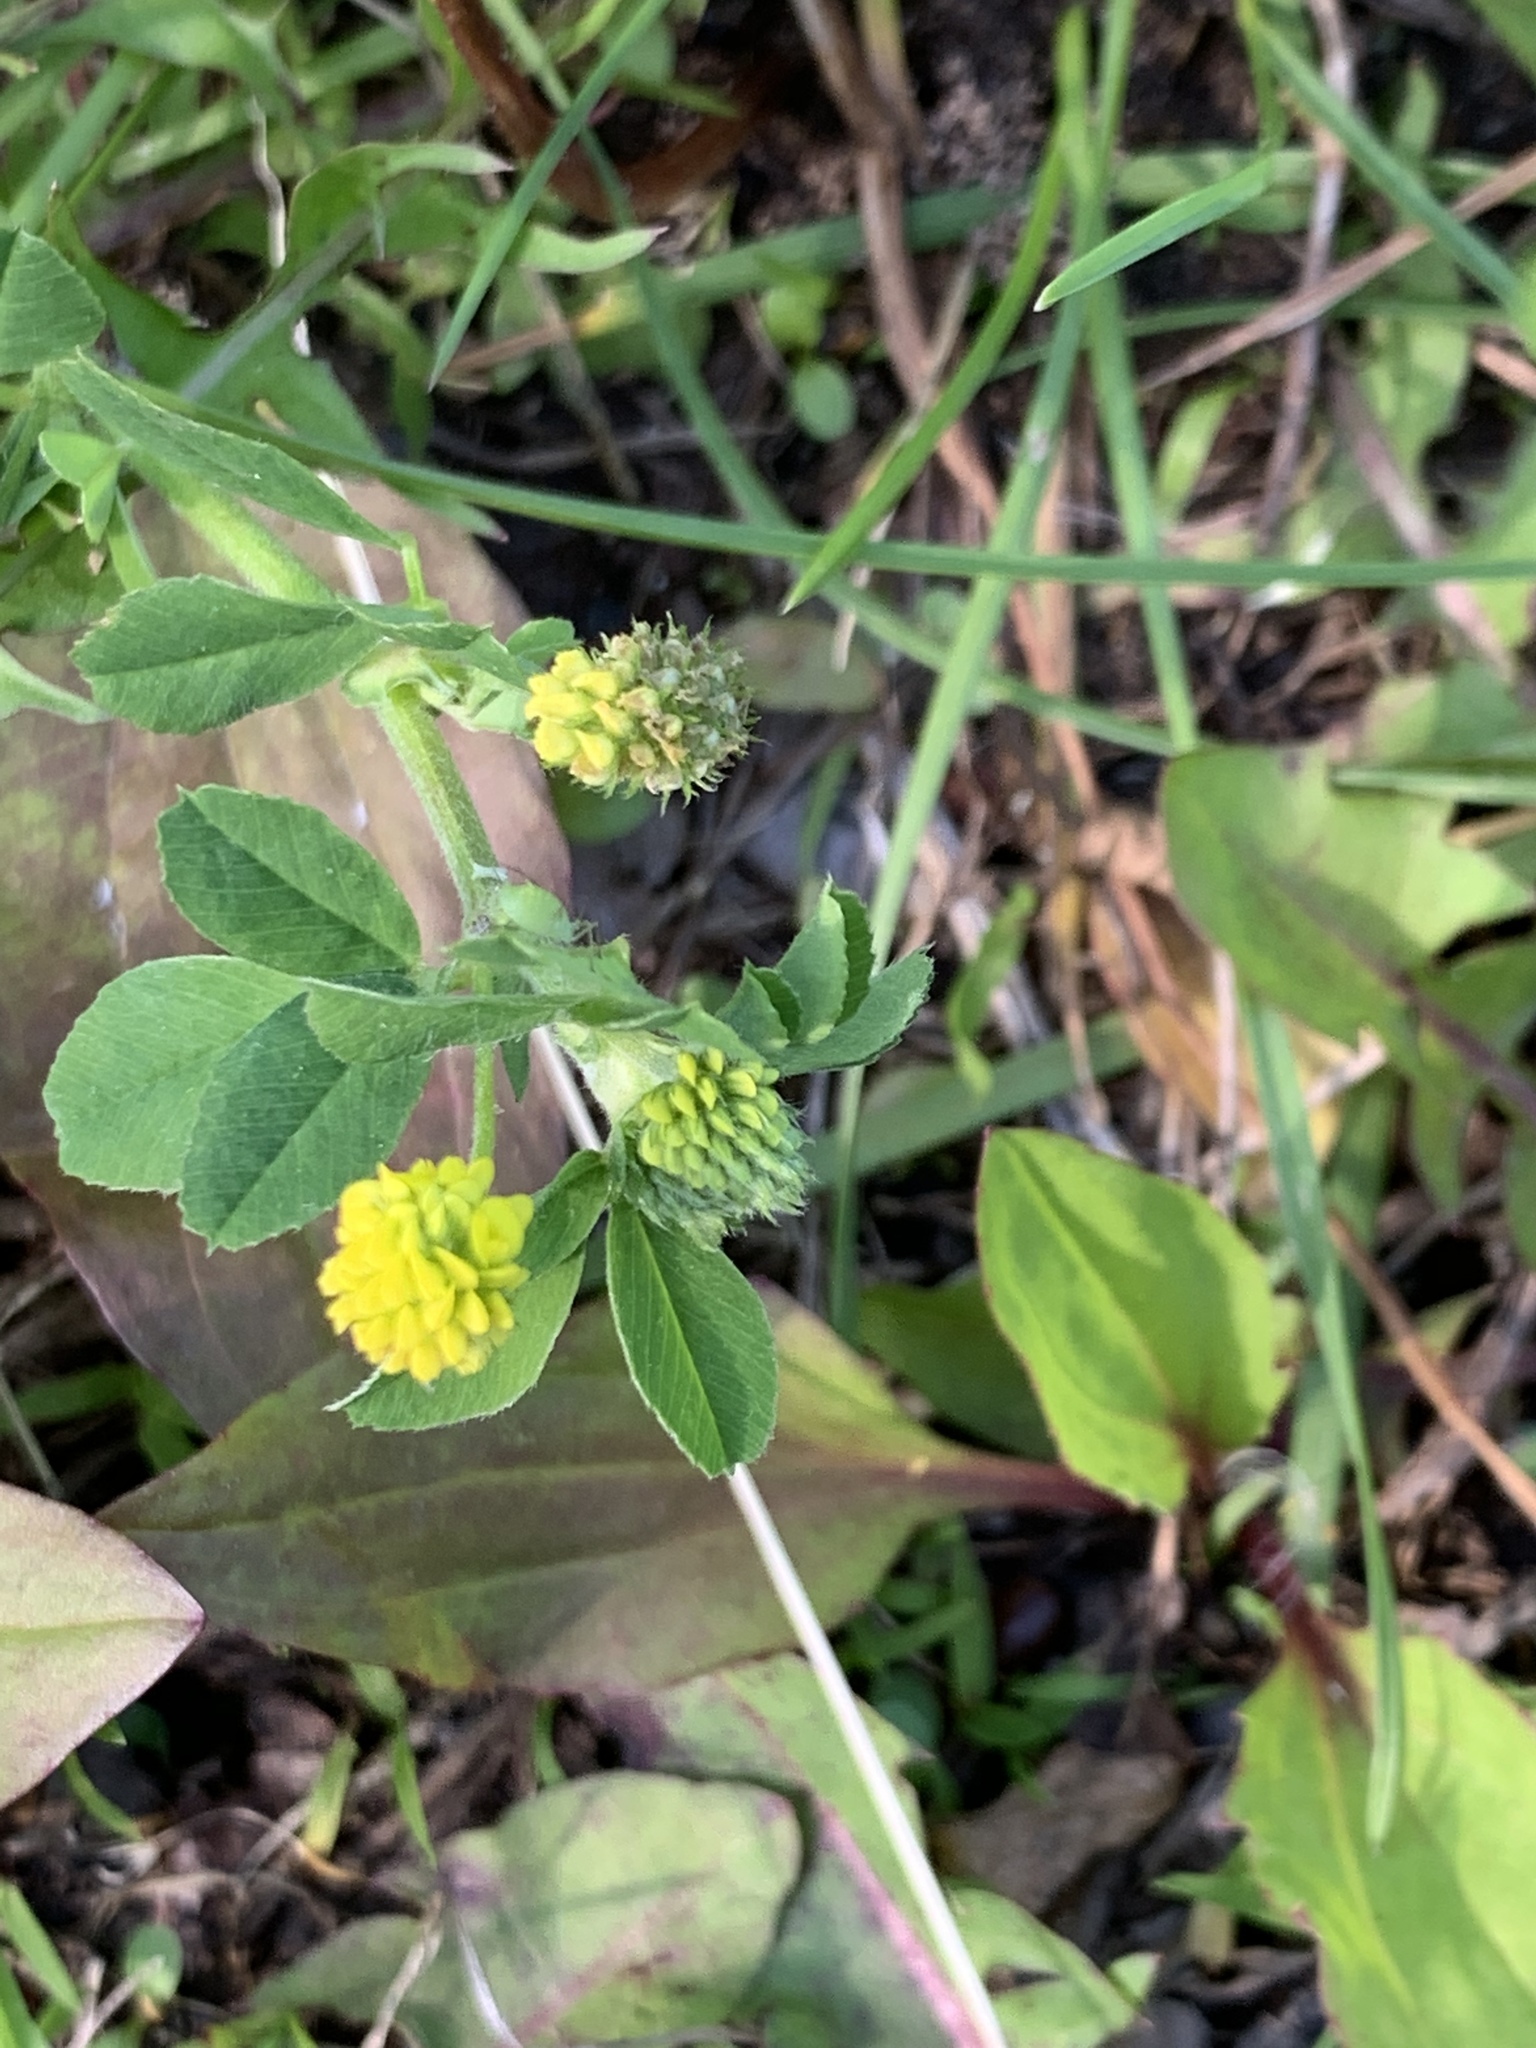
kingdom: Plantae
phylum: Tracheophyta
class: Magnoliopsida
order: Fabales
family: Fabaceae
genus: Medicago
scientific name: Medicago lupulina
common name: Black medick
